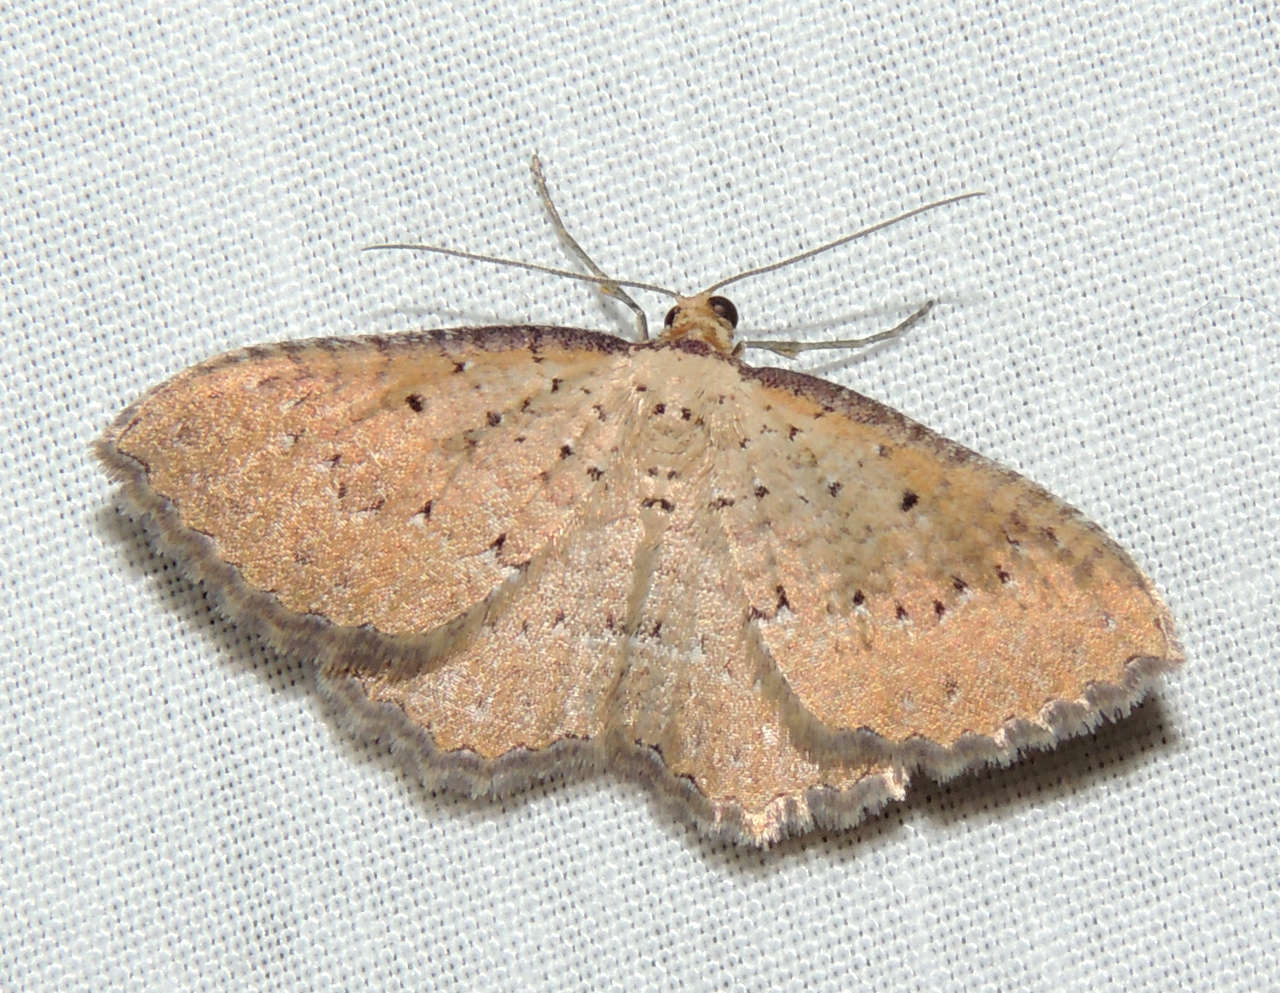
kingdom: Animalia
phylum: Arthropoda
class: Insecta
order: Lepidoptera
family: Geometridae
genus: Chrysolarentia
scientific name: Chrysolarentia microcyma
